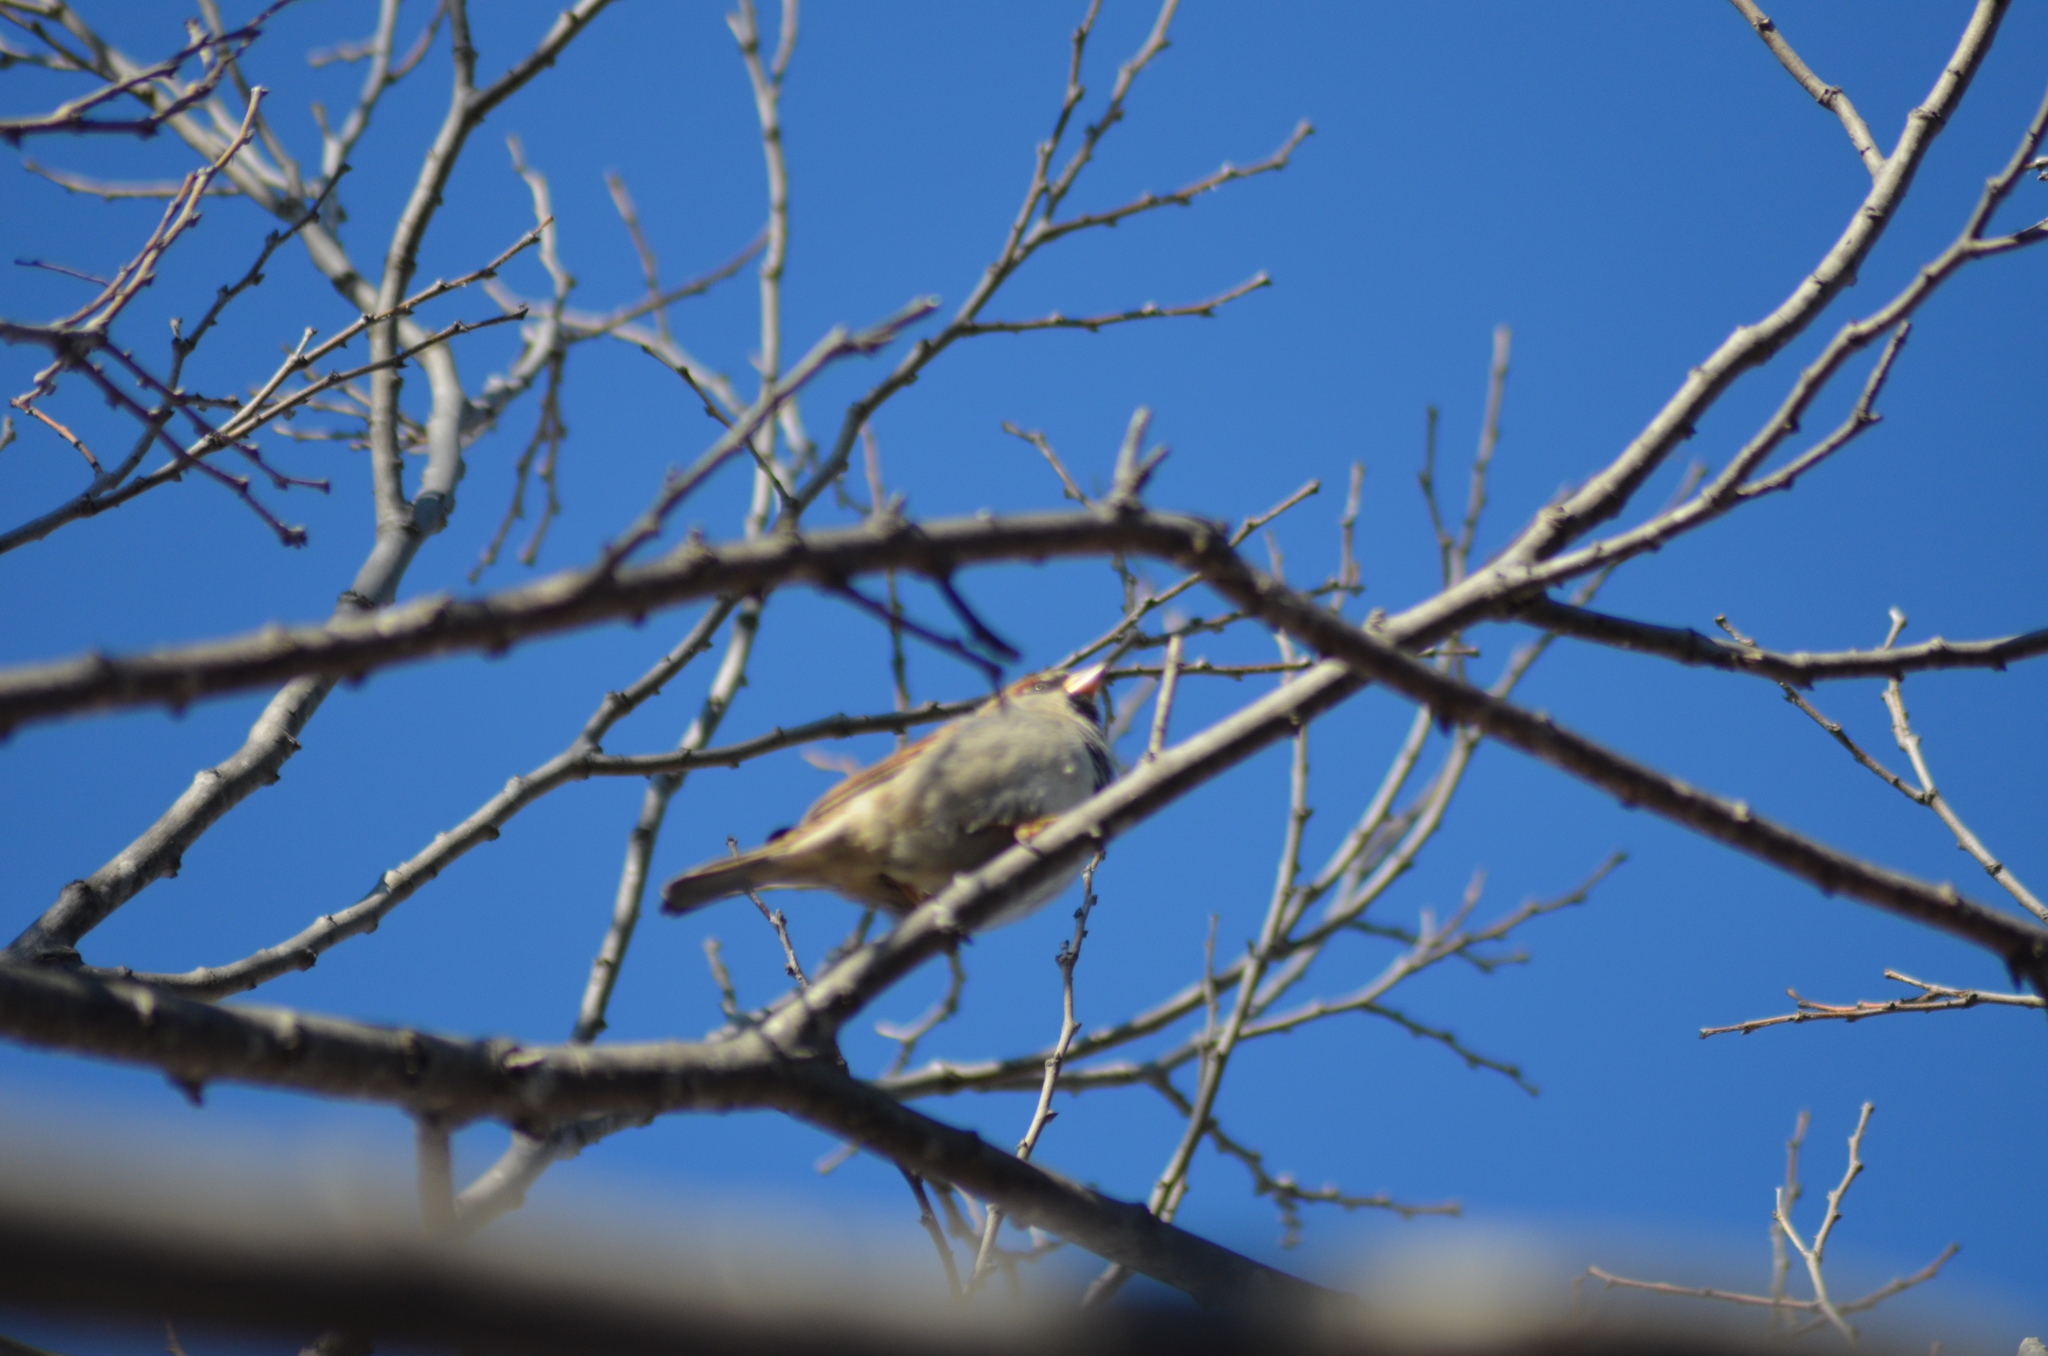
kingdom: Animalia
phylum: Chordata
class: Aves
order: Passeriformes
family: Passeridae
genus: Passer
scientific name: Passer domesticus
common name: House sparrow
